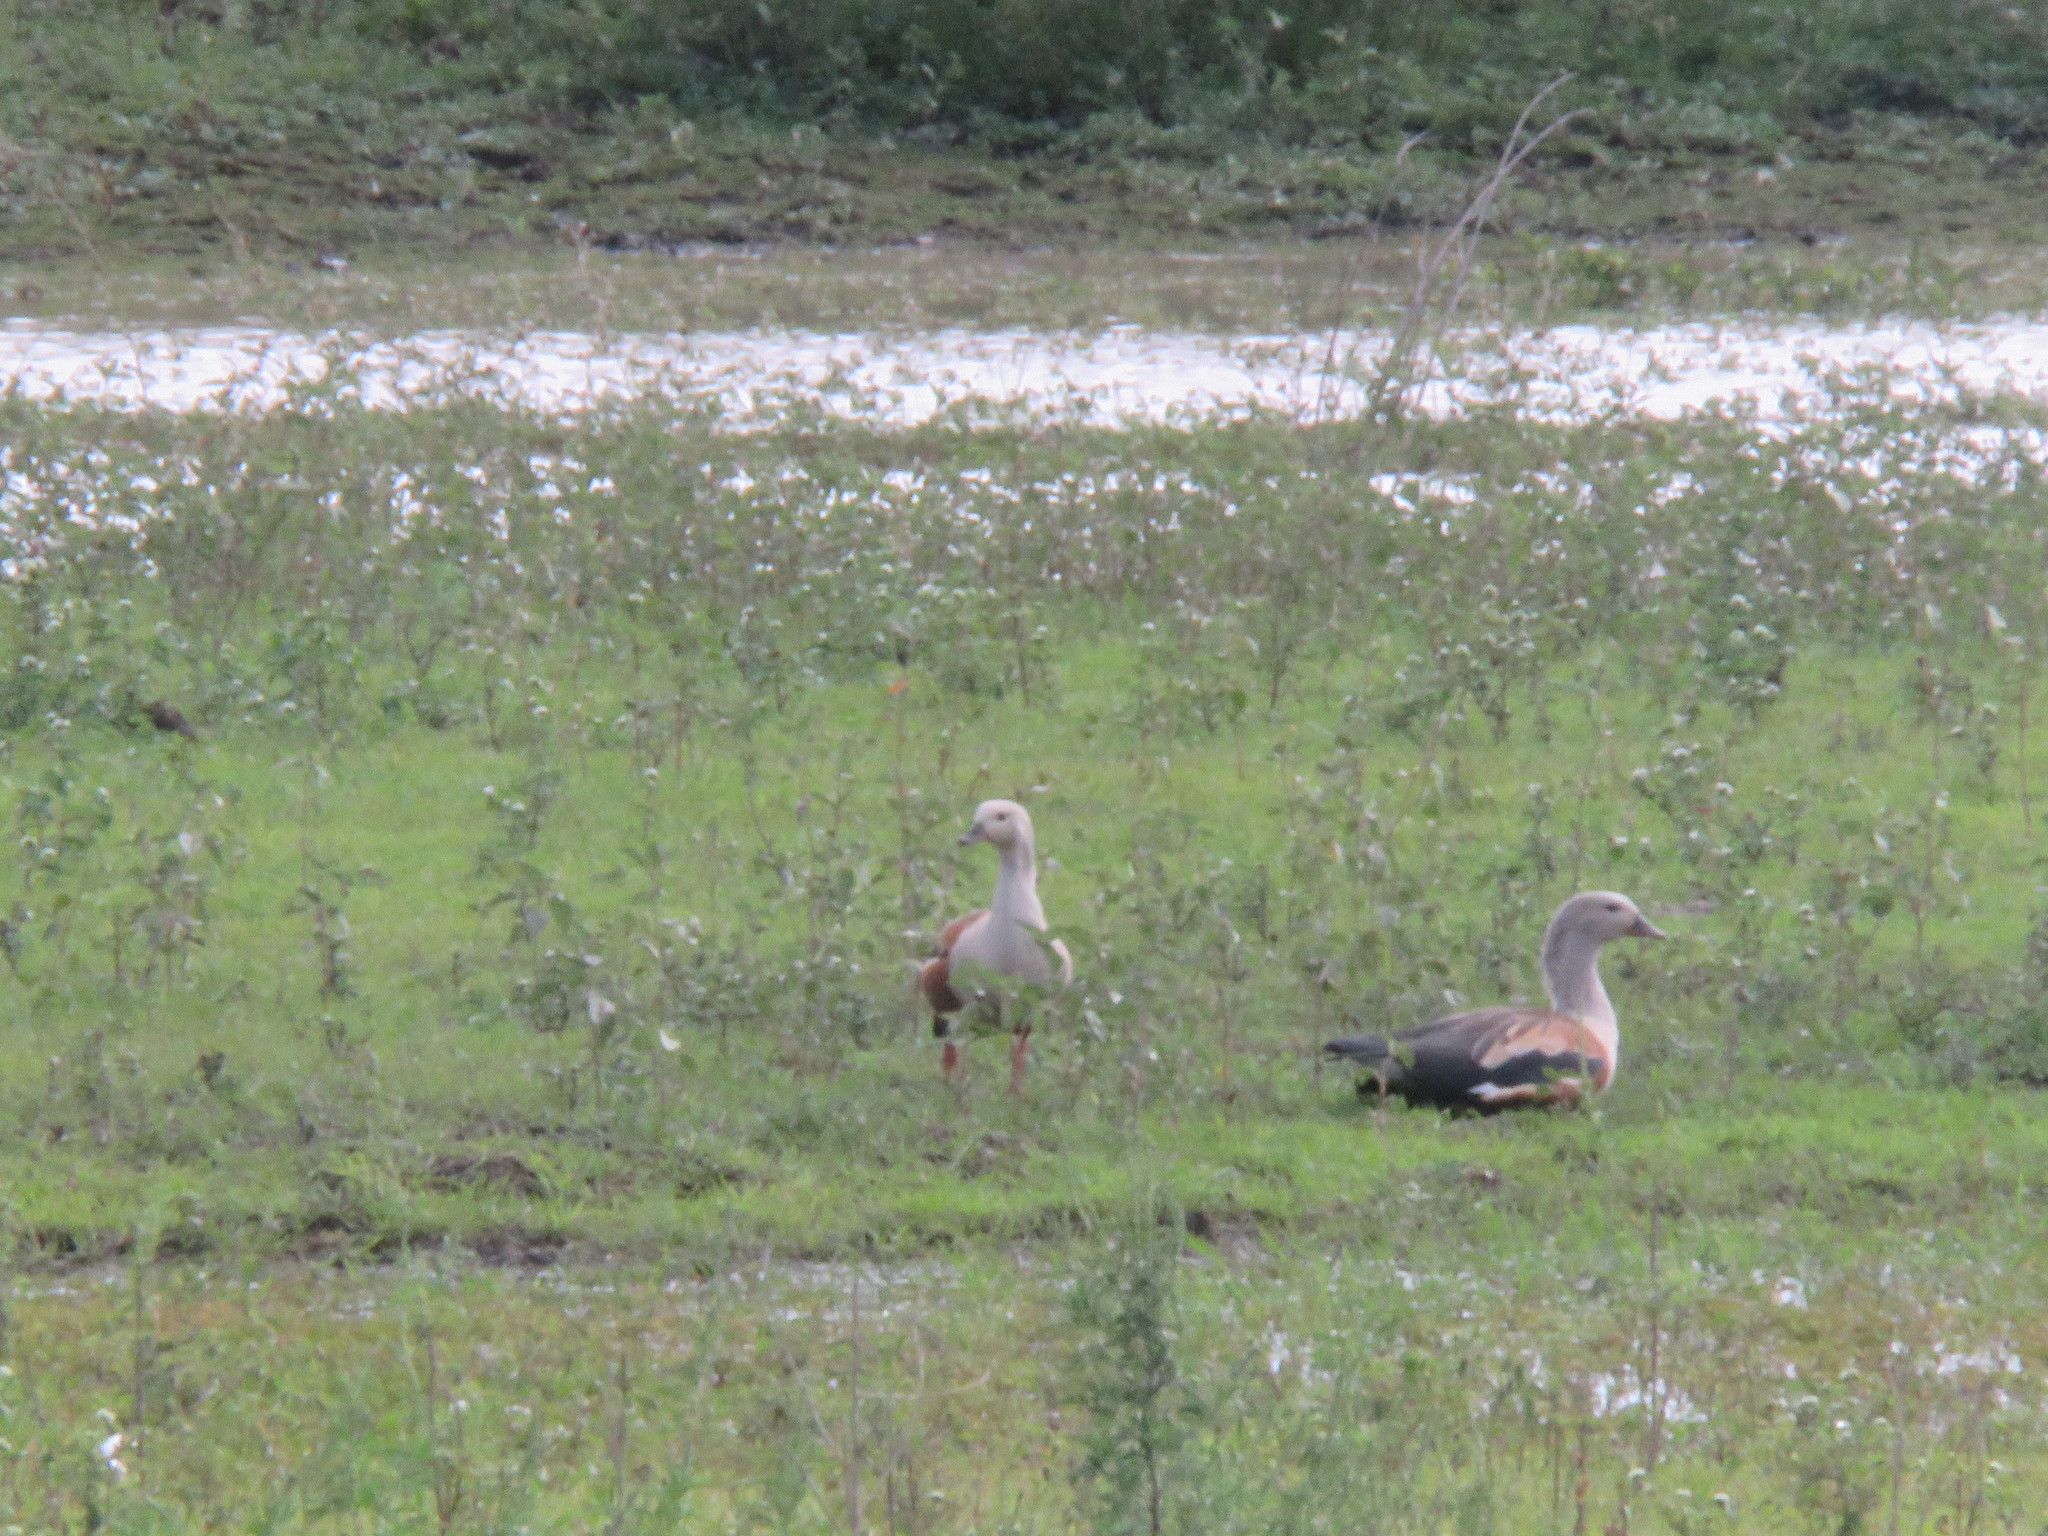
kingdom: Animalia
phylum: Chordata
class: Aves
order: Anseriformes
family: Anatidae
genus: Oressochen
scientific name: Oressochen jubatus
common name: Orinoco goose
